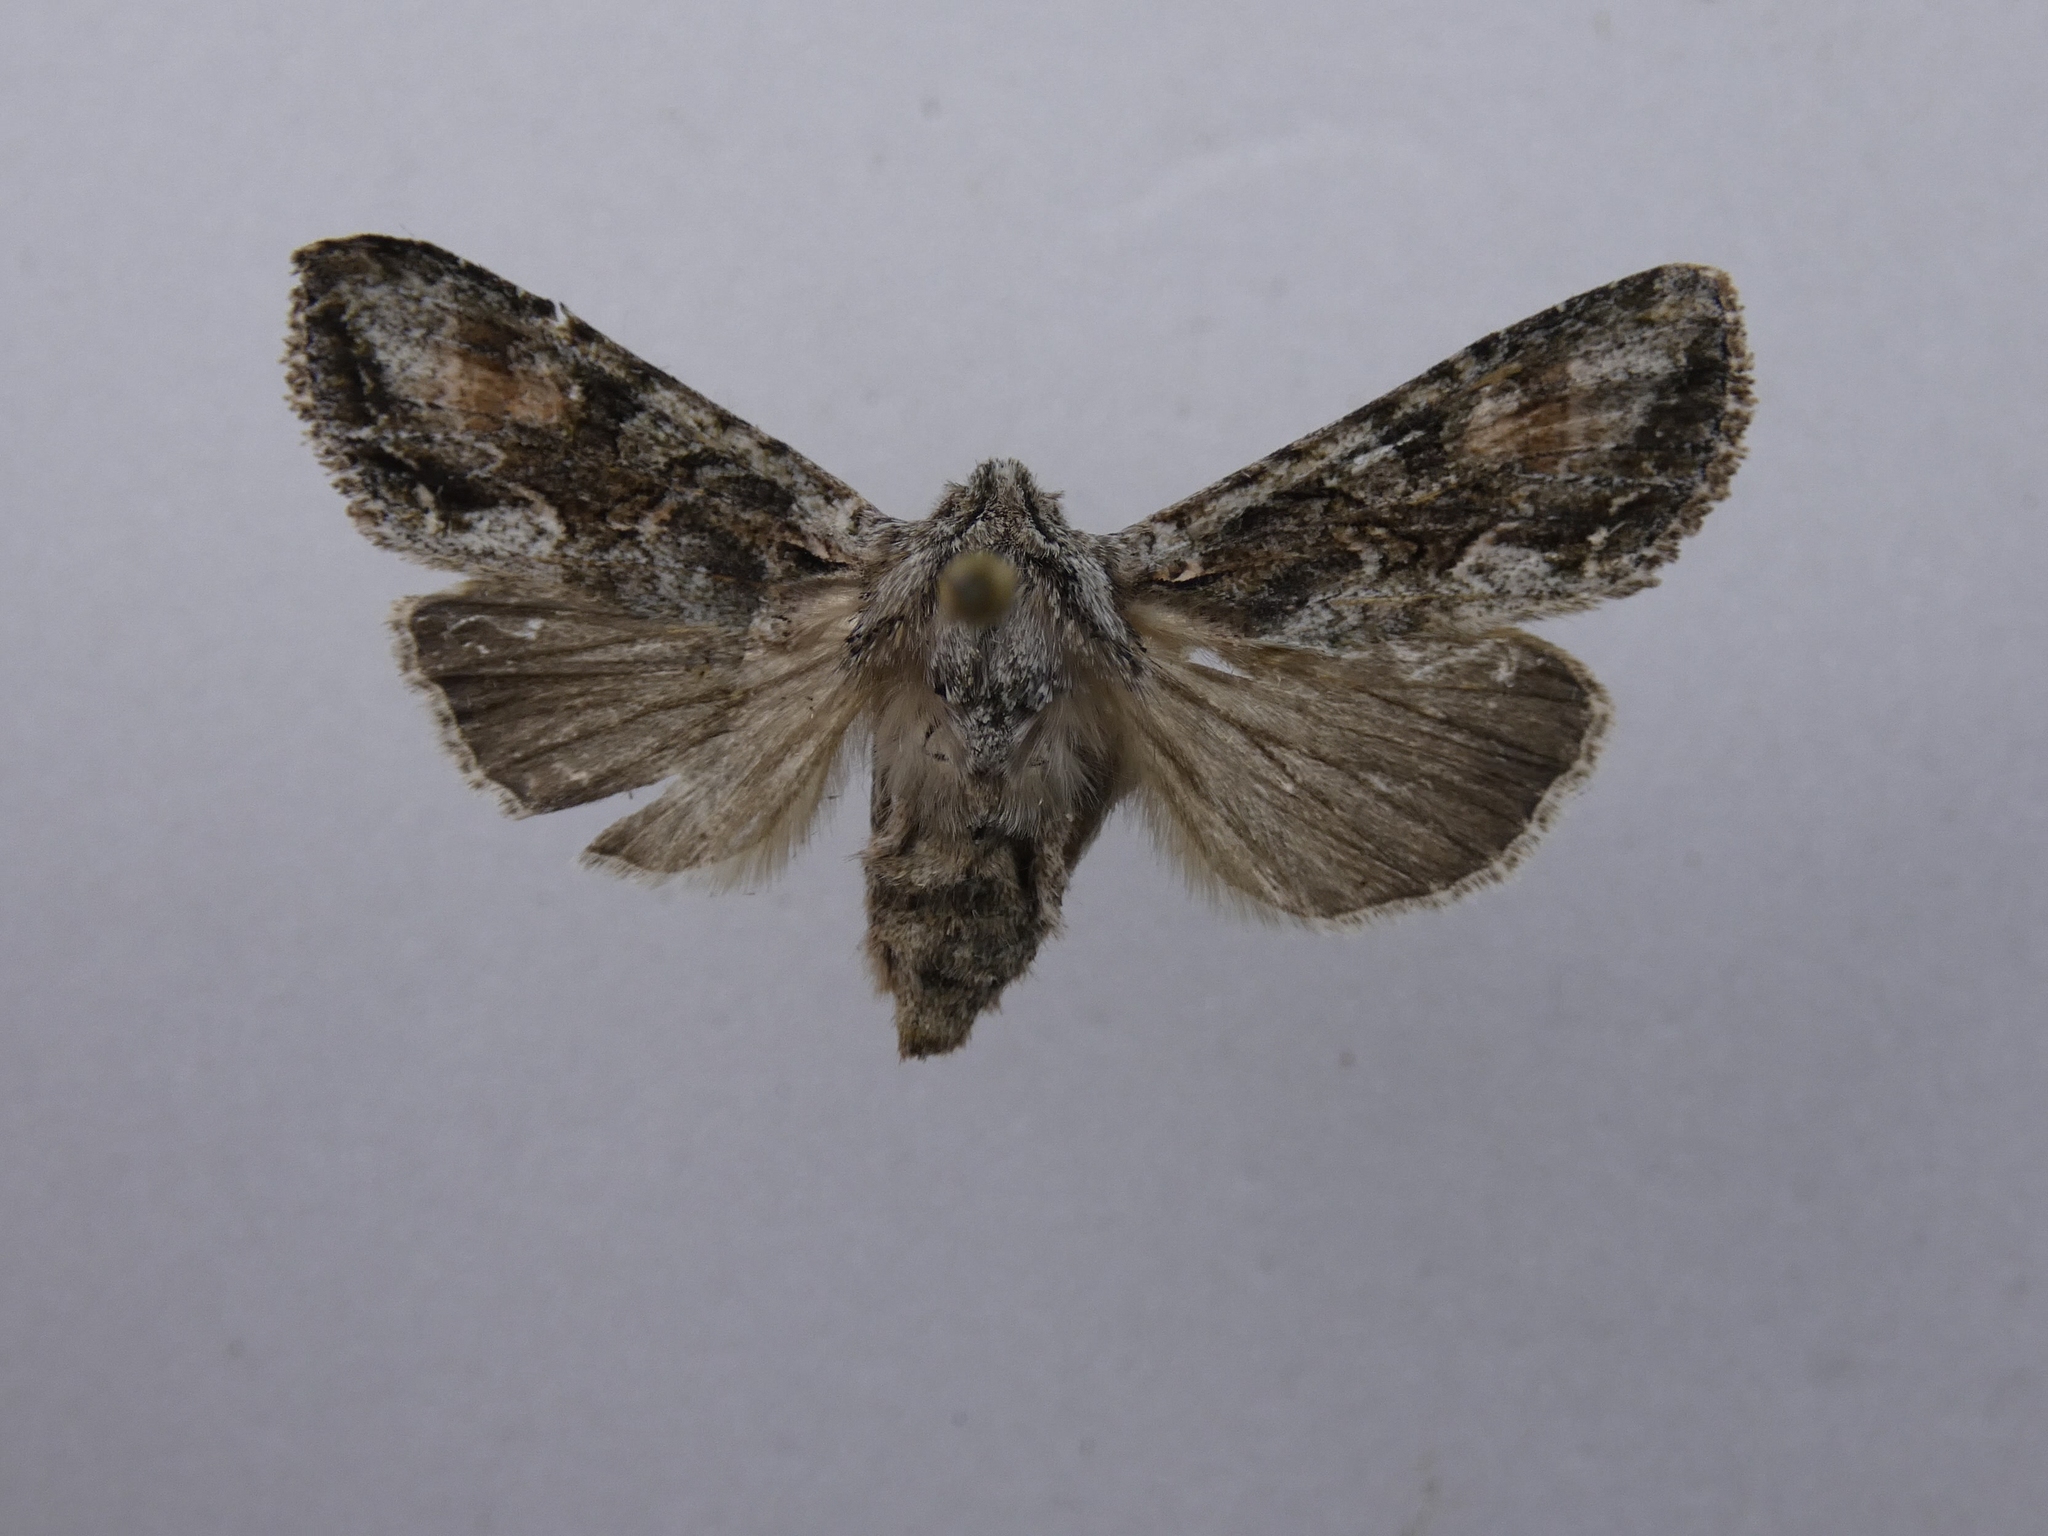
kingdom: Animalia
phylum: Arthropoda
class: Insecta
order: Lepidoptera
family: Noctuidae
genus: Ichneutica
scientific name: Ichneutica mutans
